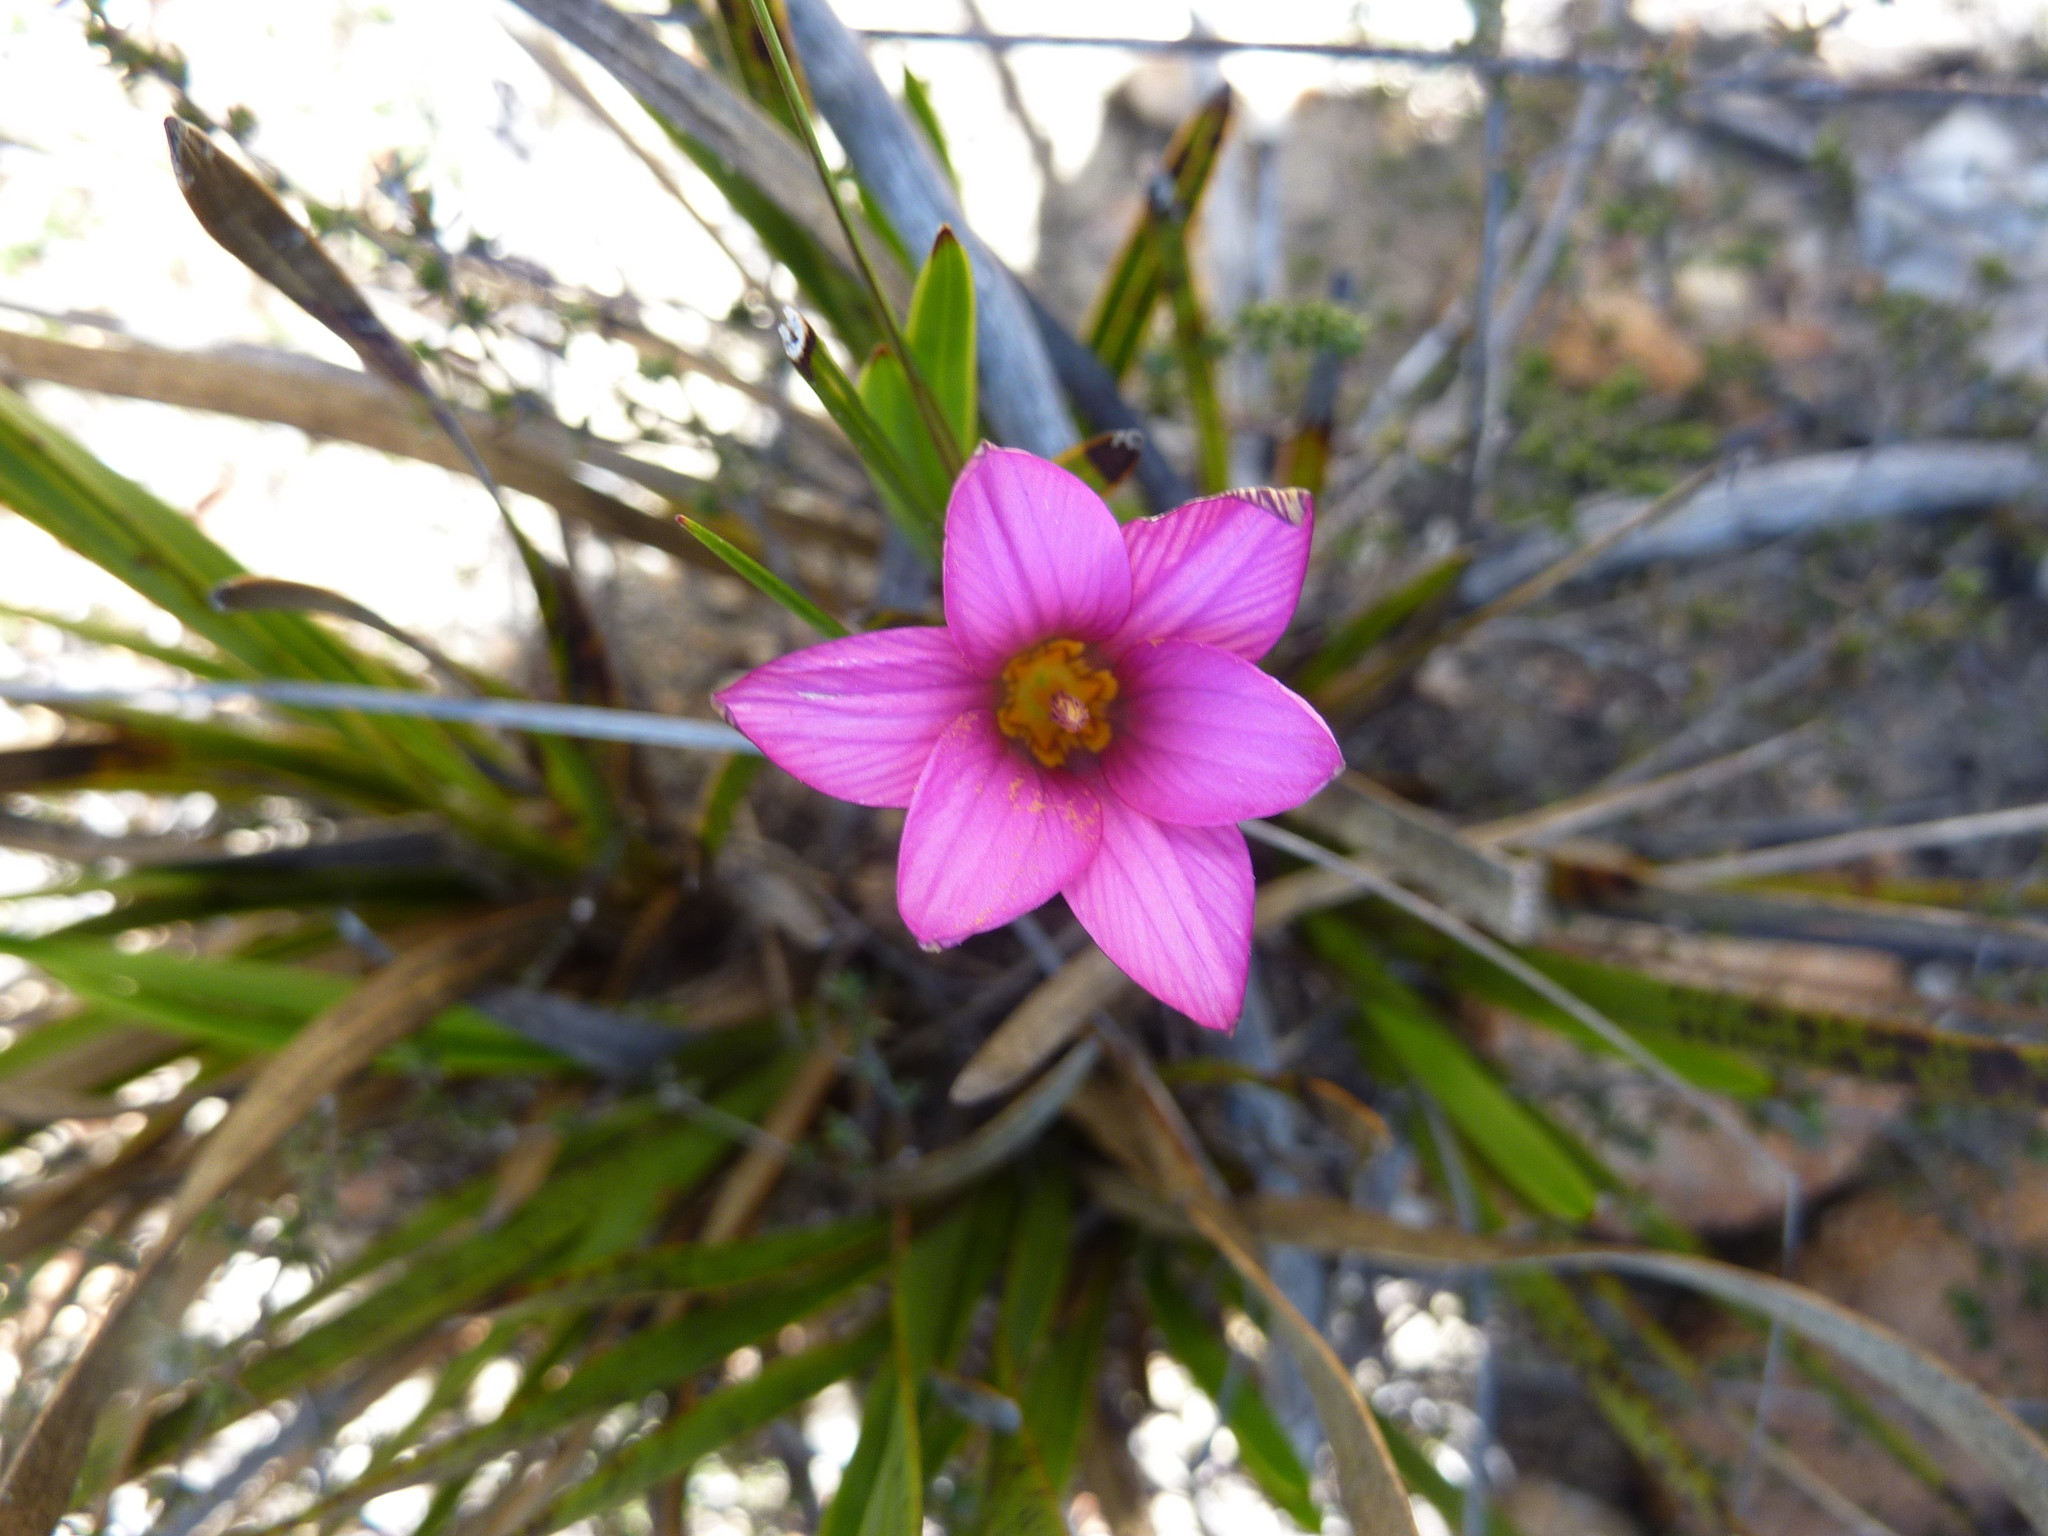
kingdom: Plantae
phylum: Tracheophyta
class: Liliopsida
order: Asparagales
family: Iridaceae
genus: Romulea
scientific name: Romulea rosea
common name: Oniongrass
